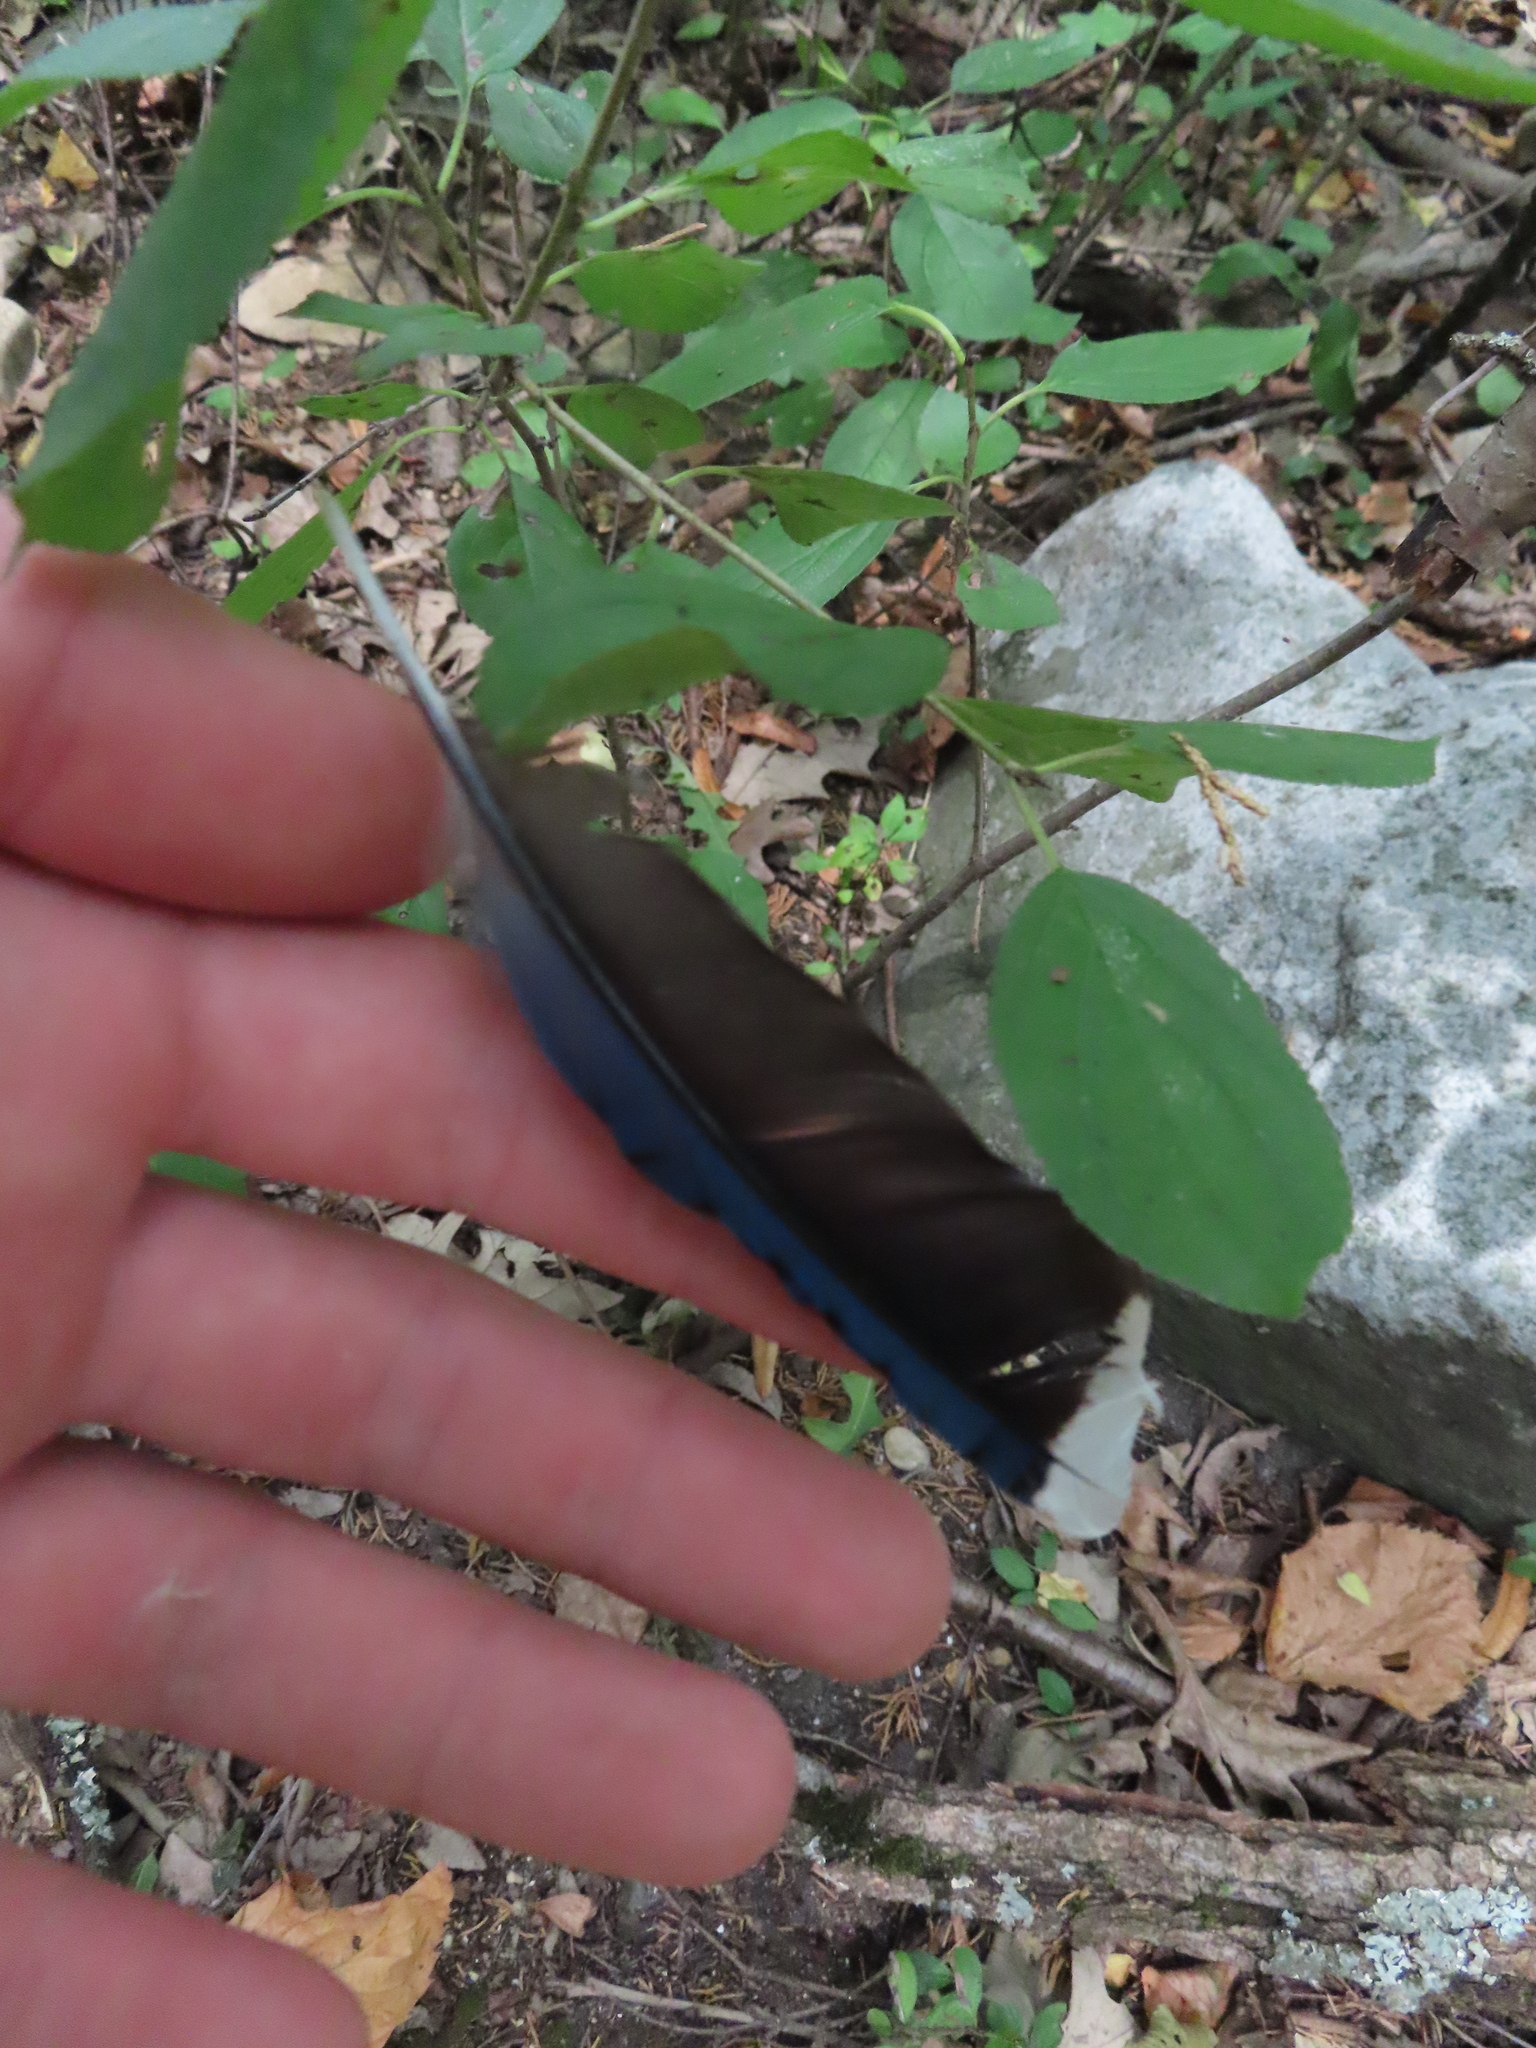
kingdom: Animalia
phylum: Chordata
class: Aves
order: Passeriformes
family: Corvidae
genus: Cyanocitta
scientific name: Cyanocitta cristata
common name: Blue jay
